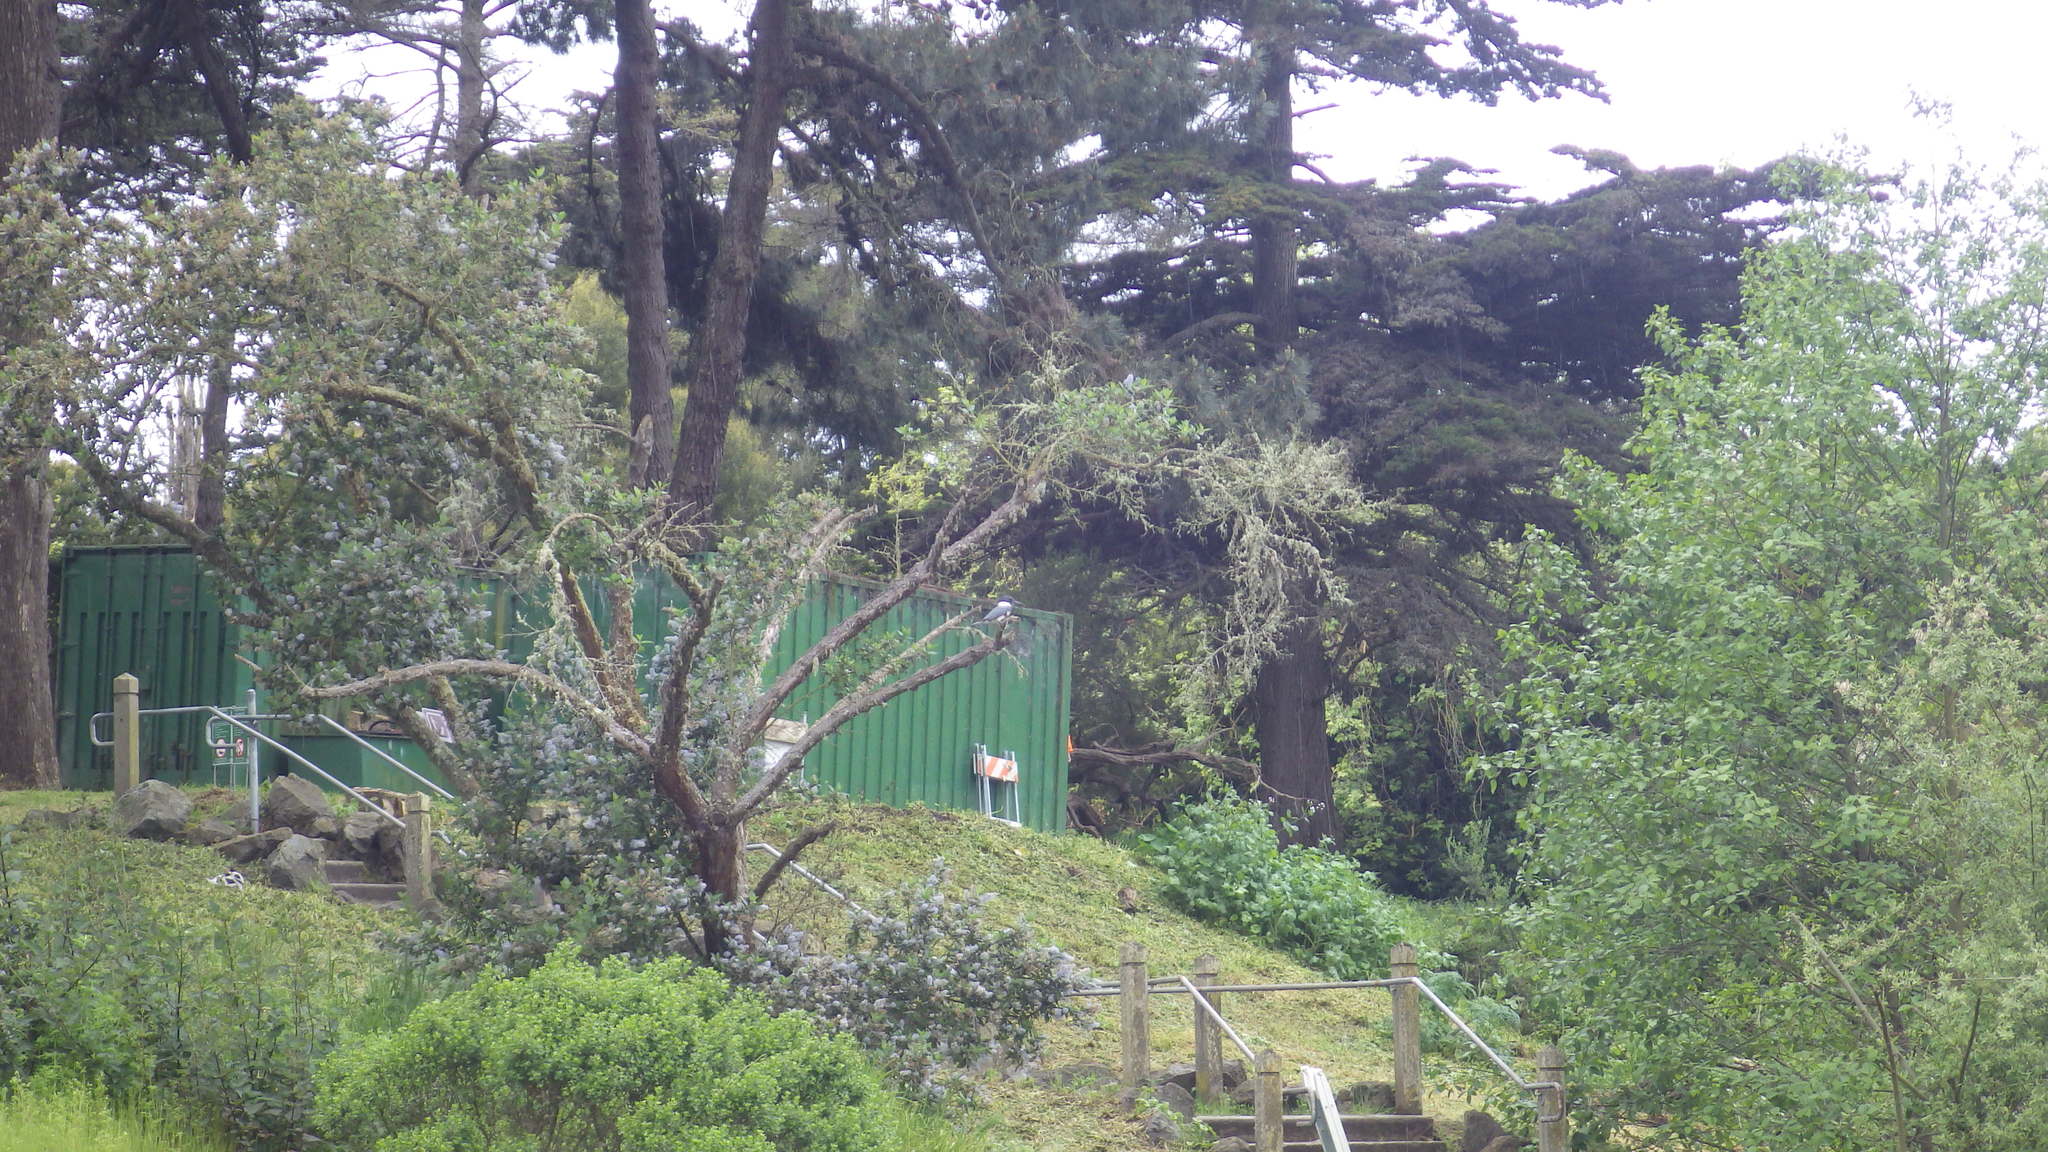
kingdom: Animalia
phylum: Chordata
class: Aves
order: Coraciiformes
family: Alcedinidae
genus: Megaceryle
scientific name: Megaceryle alcyon
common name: Belted kingfisher
